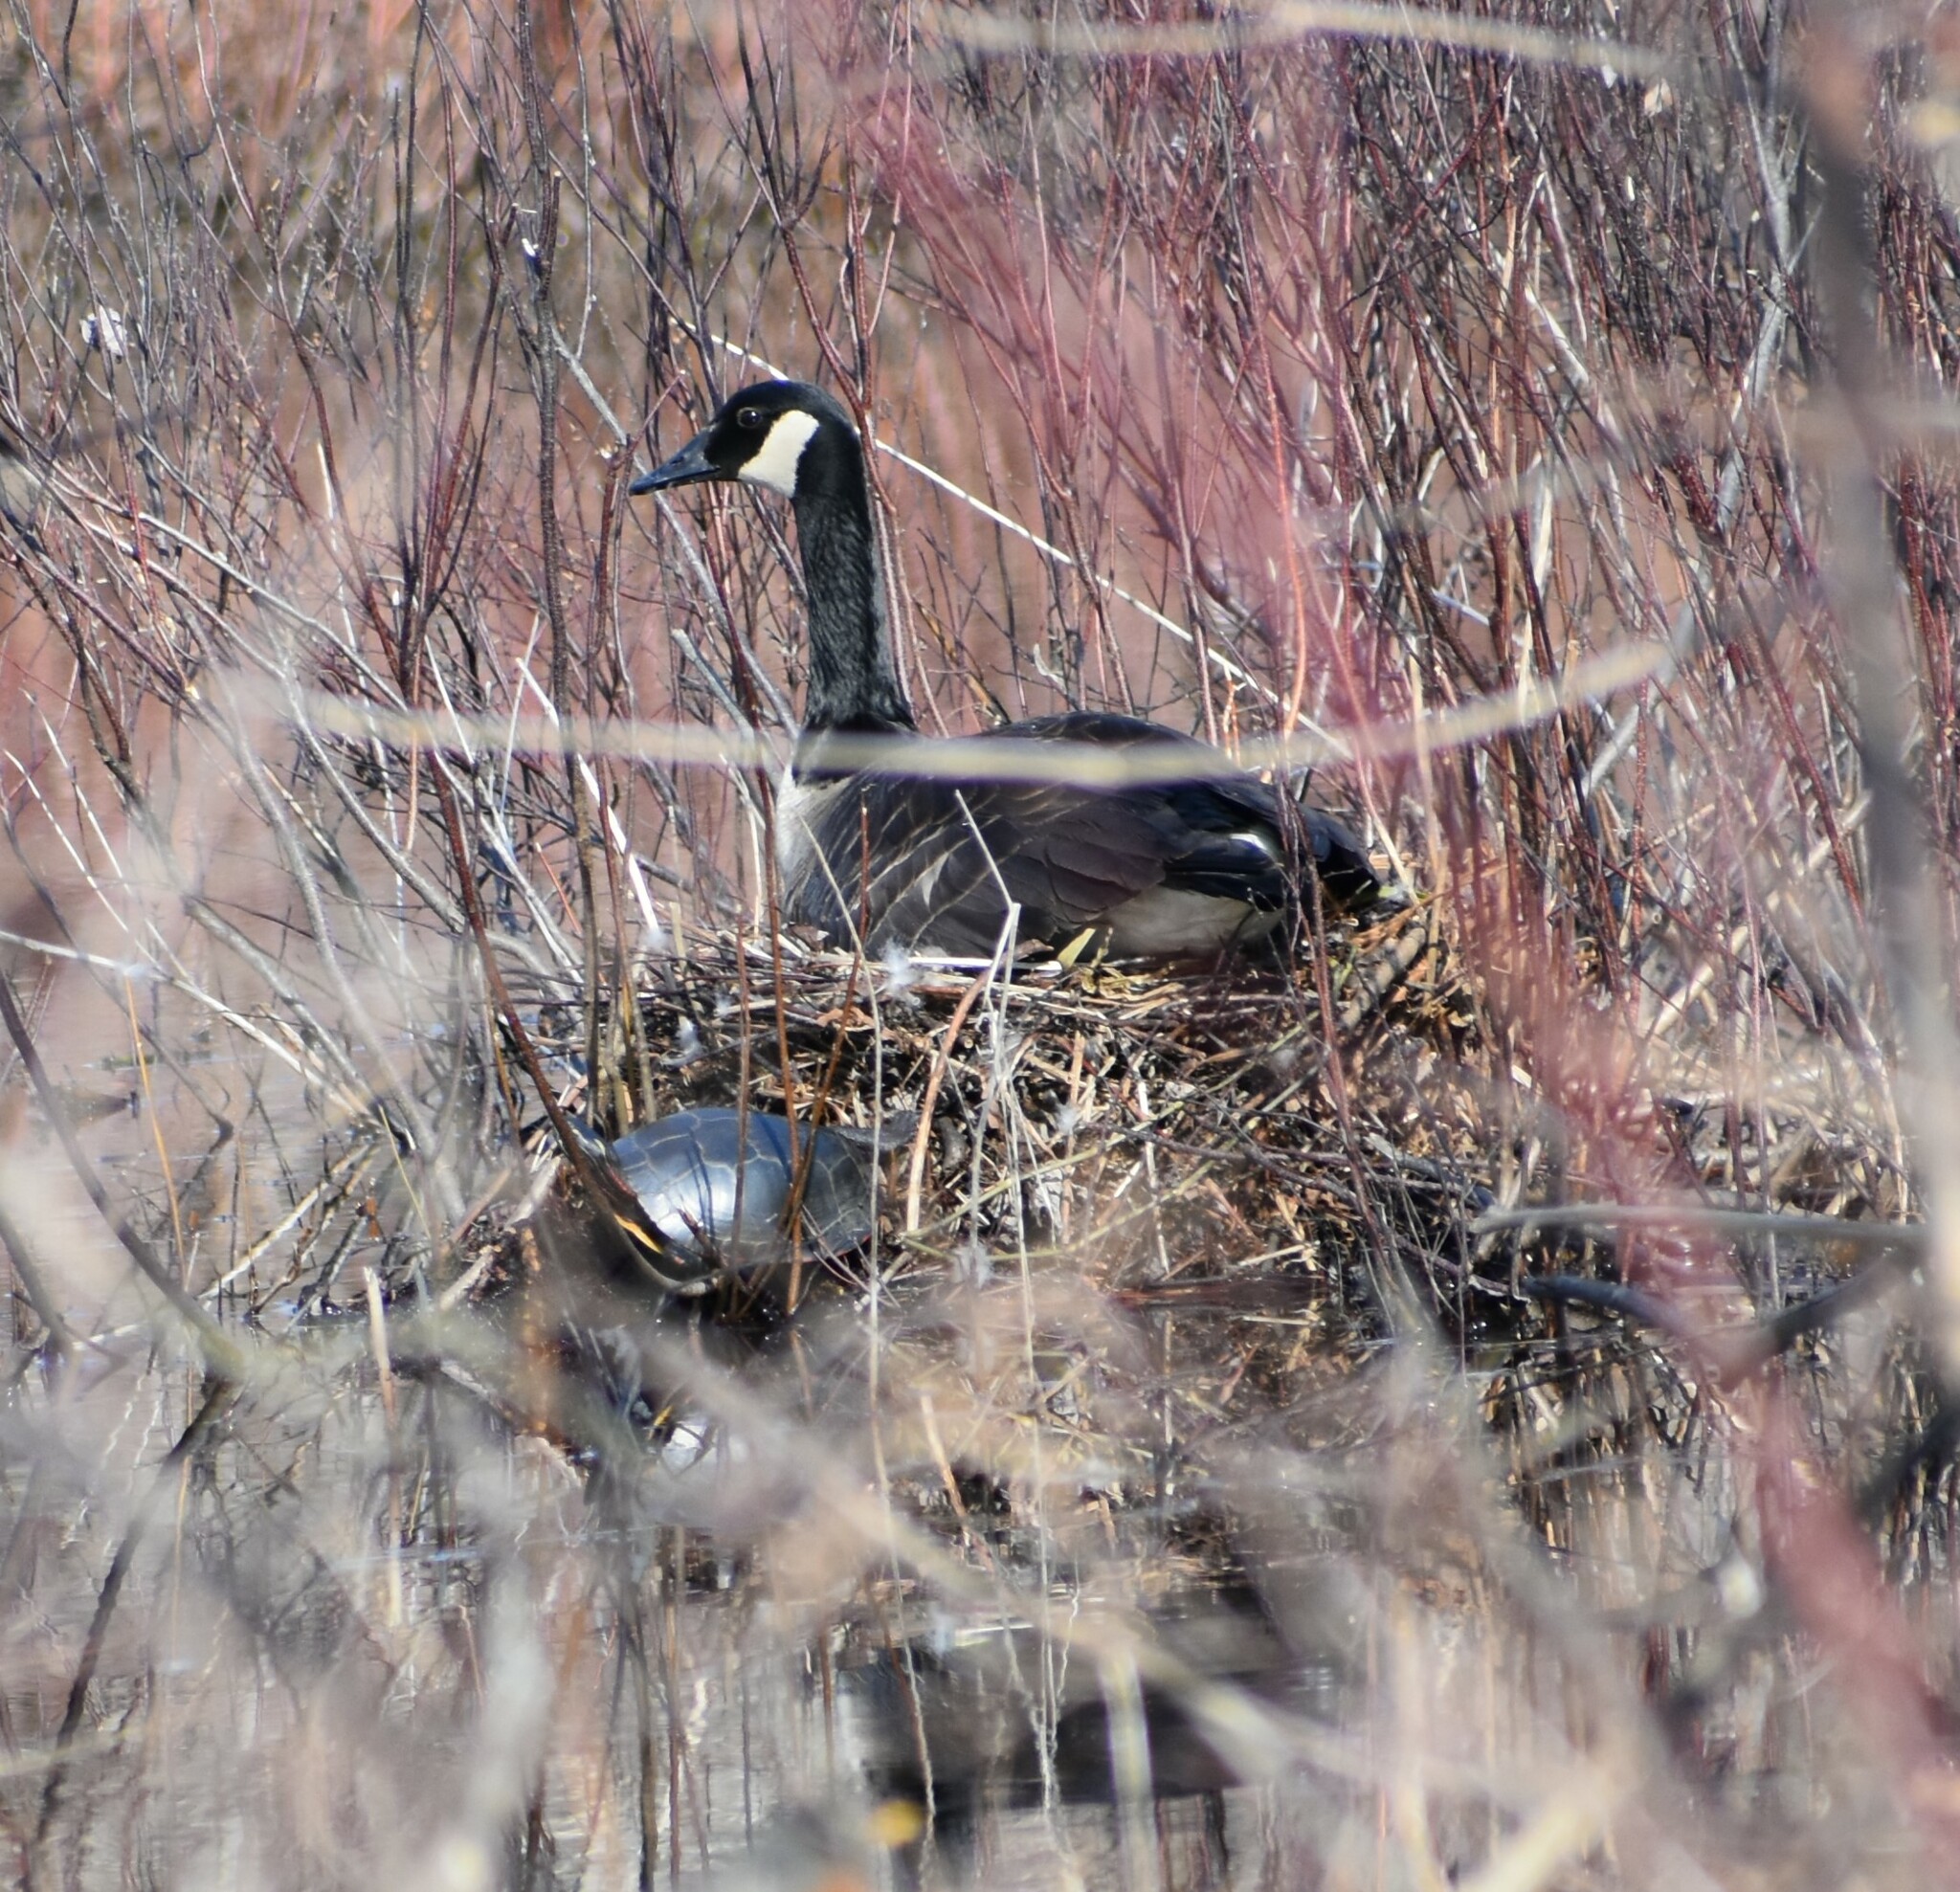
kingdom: Animalia
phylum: Chordata
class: Testudines
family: Emydidae
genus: Chrysemys
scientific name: Chrysemys picta
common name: Painted turtle
